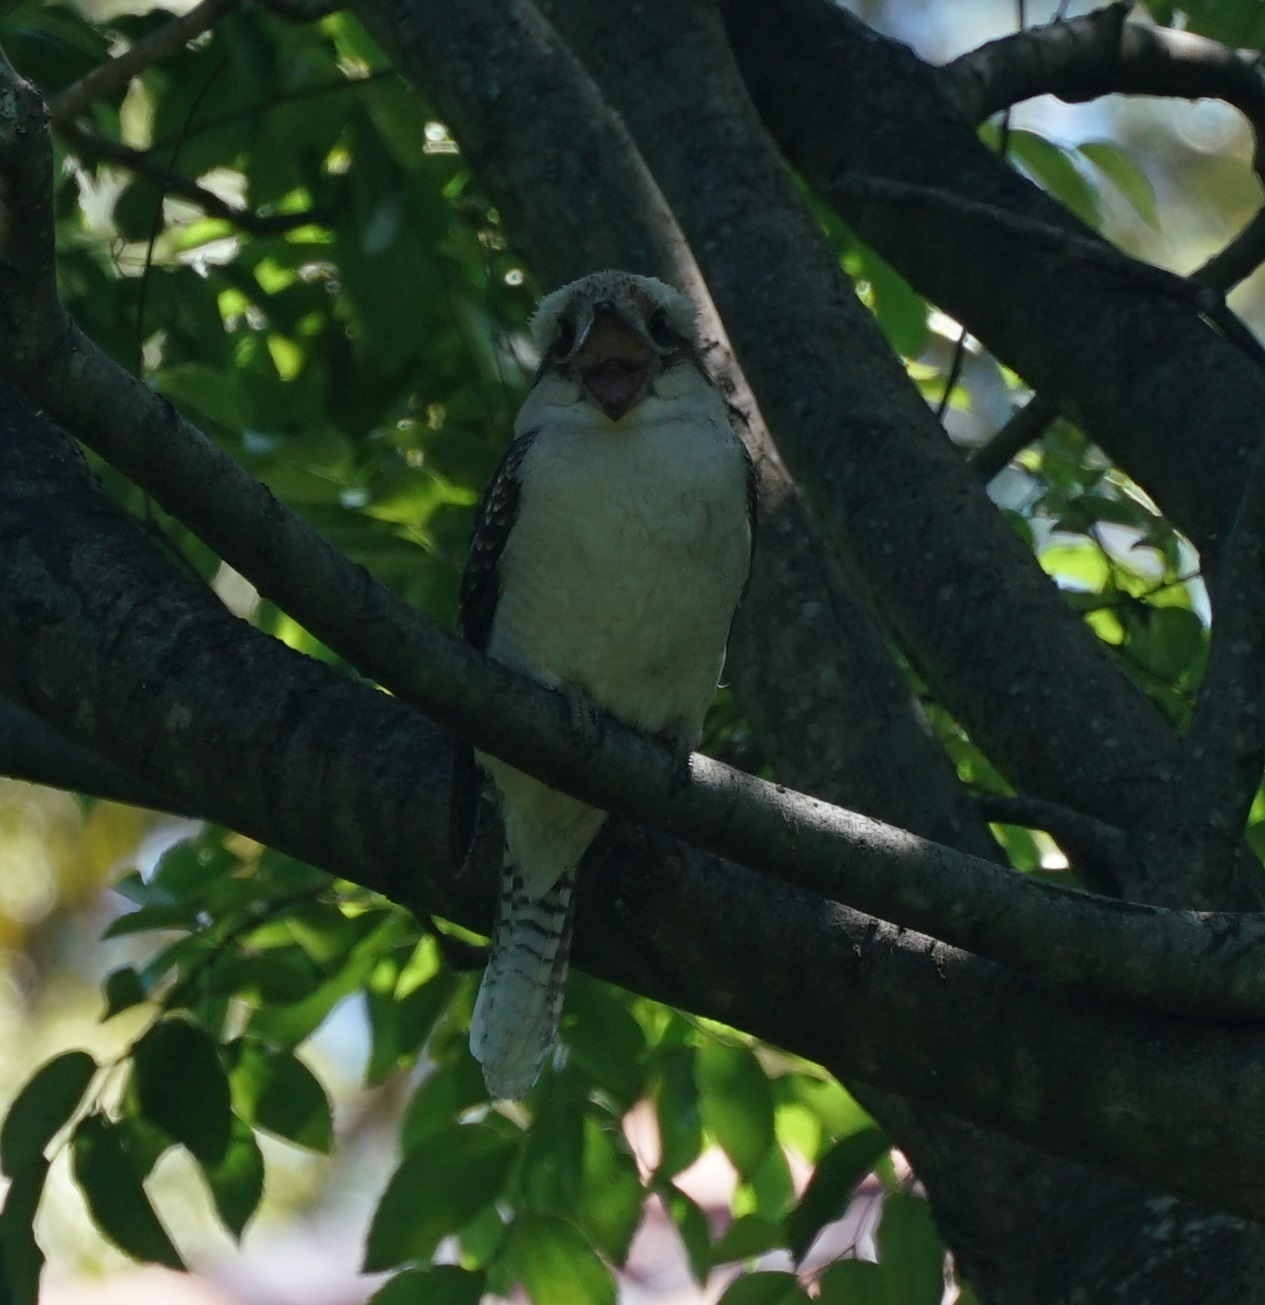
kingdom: Animalia
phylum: Chordata
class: Aves
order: Coraciiformes
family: Alcedinidae
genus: Dacelo
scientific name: Dacelo novaeguineae
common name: Laughing kookaburra
